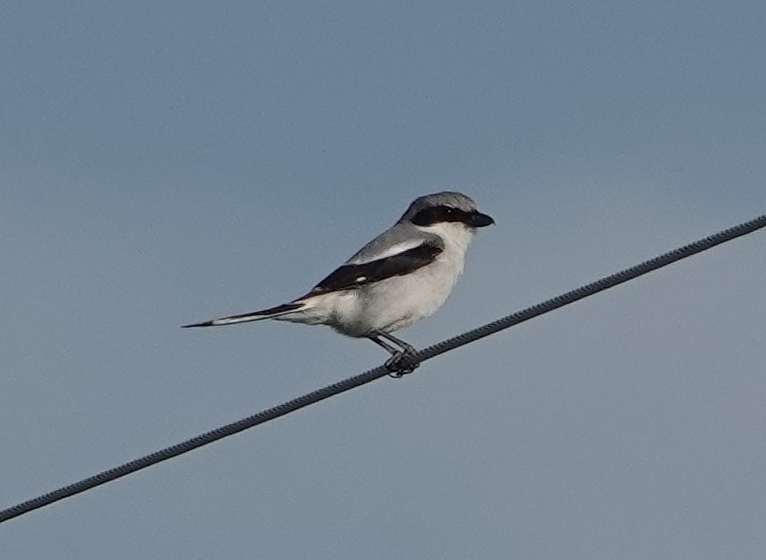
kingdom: Animalia
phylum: Chordata
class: Aves
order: Passeriformes
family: Laniidae
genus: Lanius
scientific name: Lanius ludovicianus
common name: Loggerhead shrike
